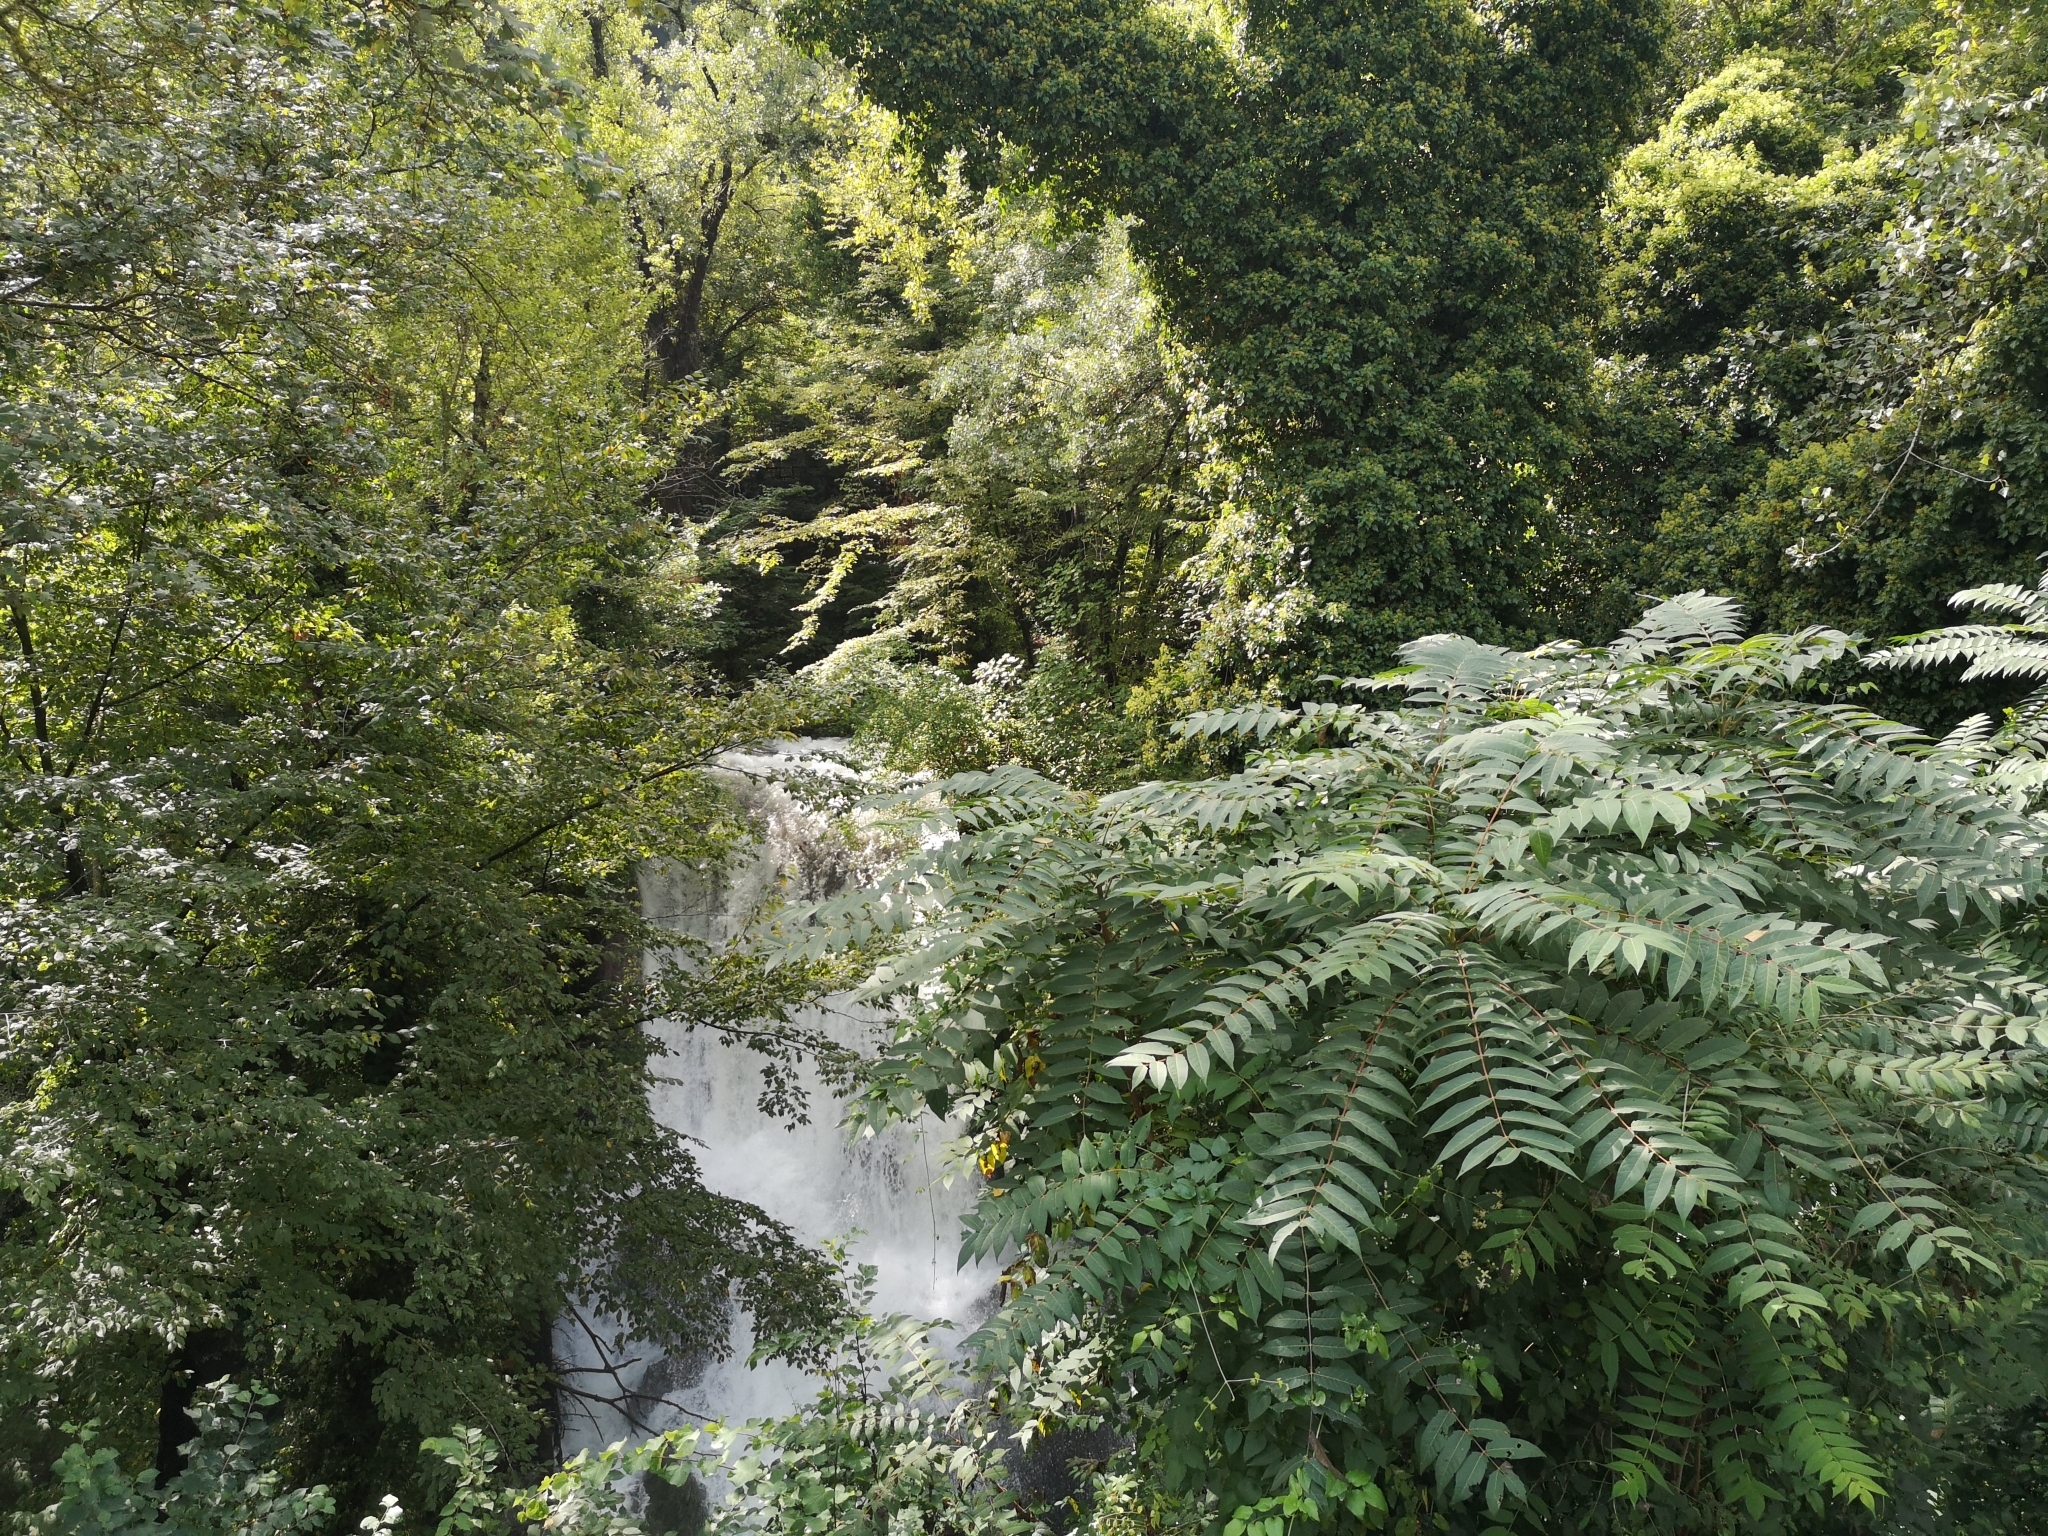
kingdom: Plantae
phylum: Tracheophyta
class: Magnoliopsida
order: Sapindales
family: Simaroubaceae
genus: Ailanthus
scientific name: Ailanthus altissima
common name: Tree-of-heaven
